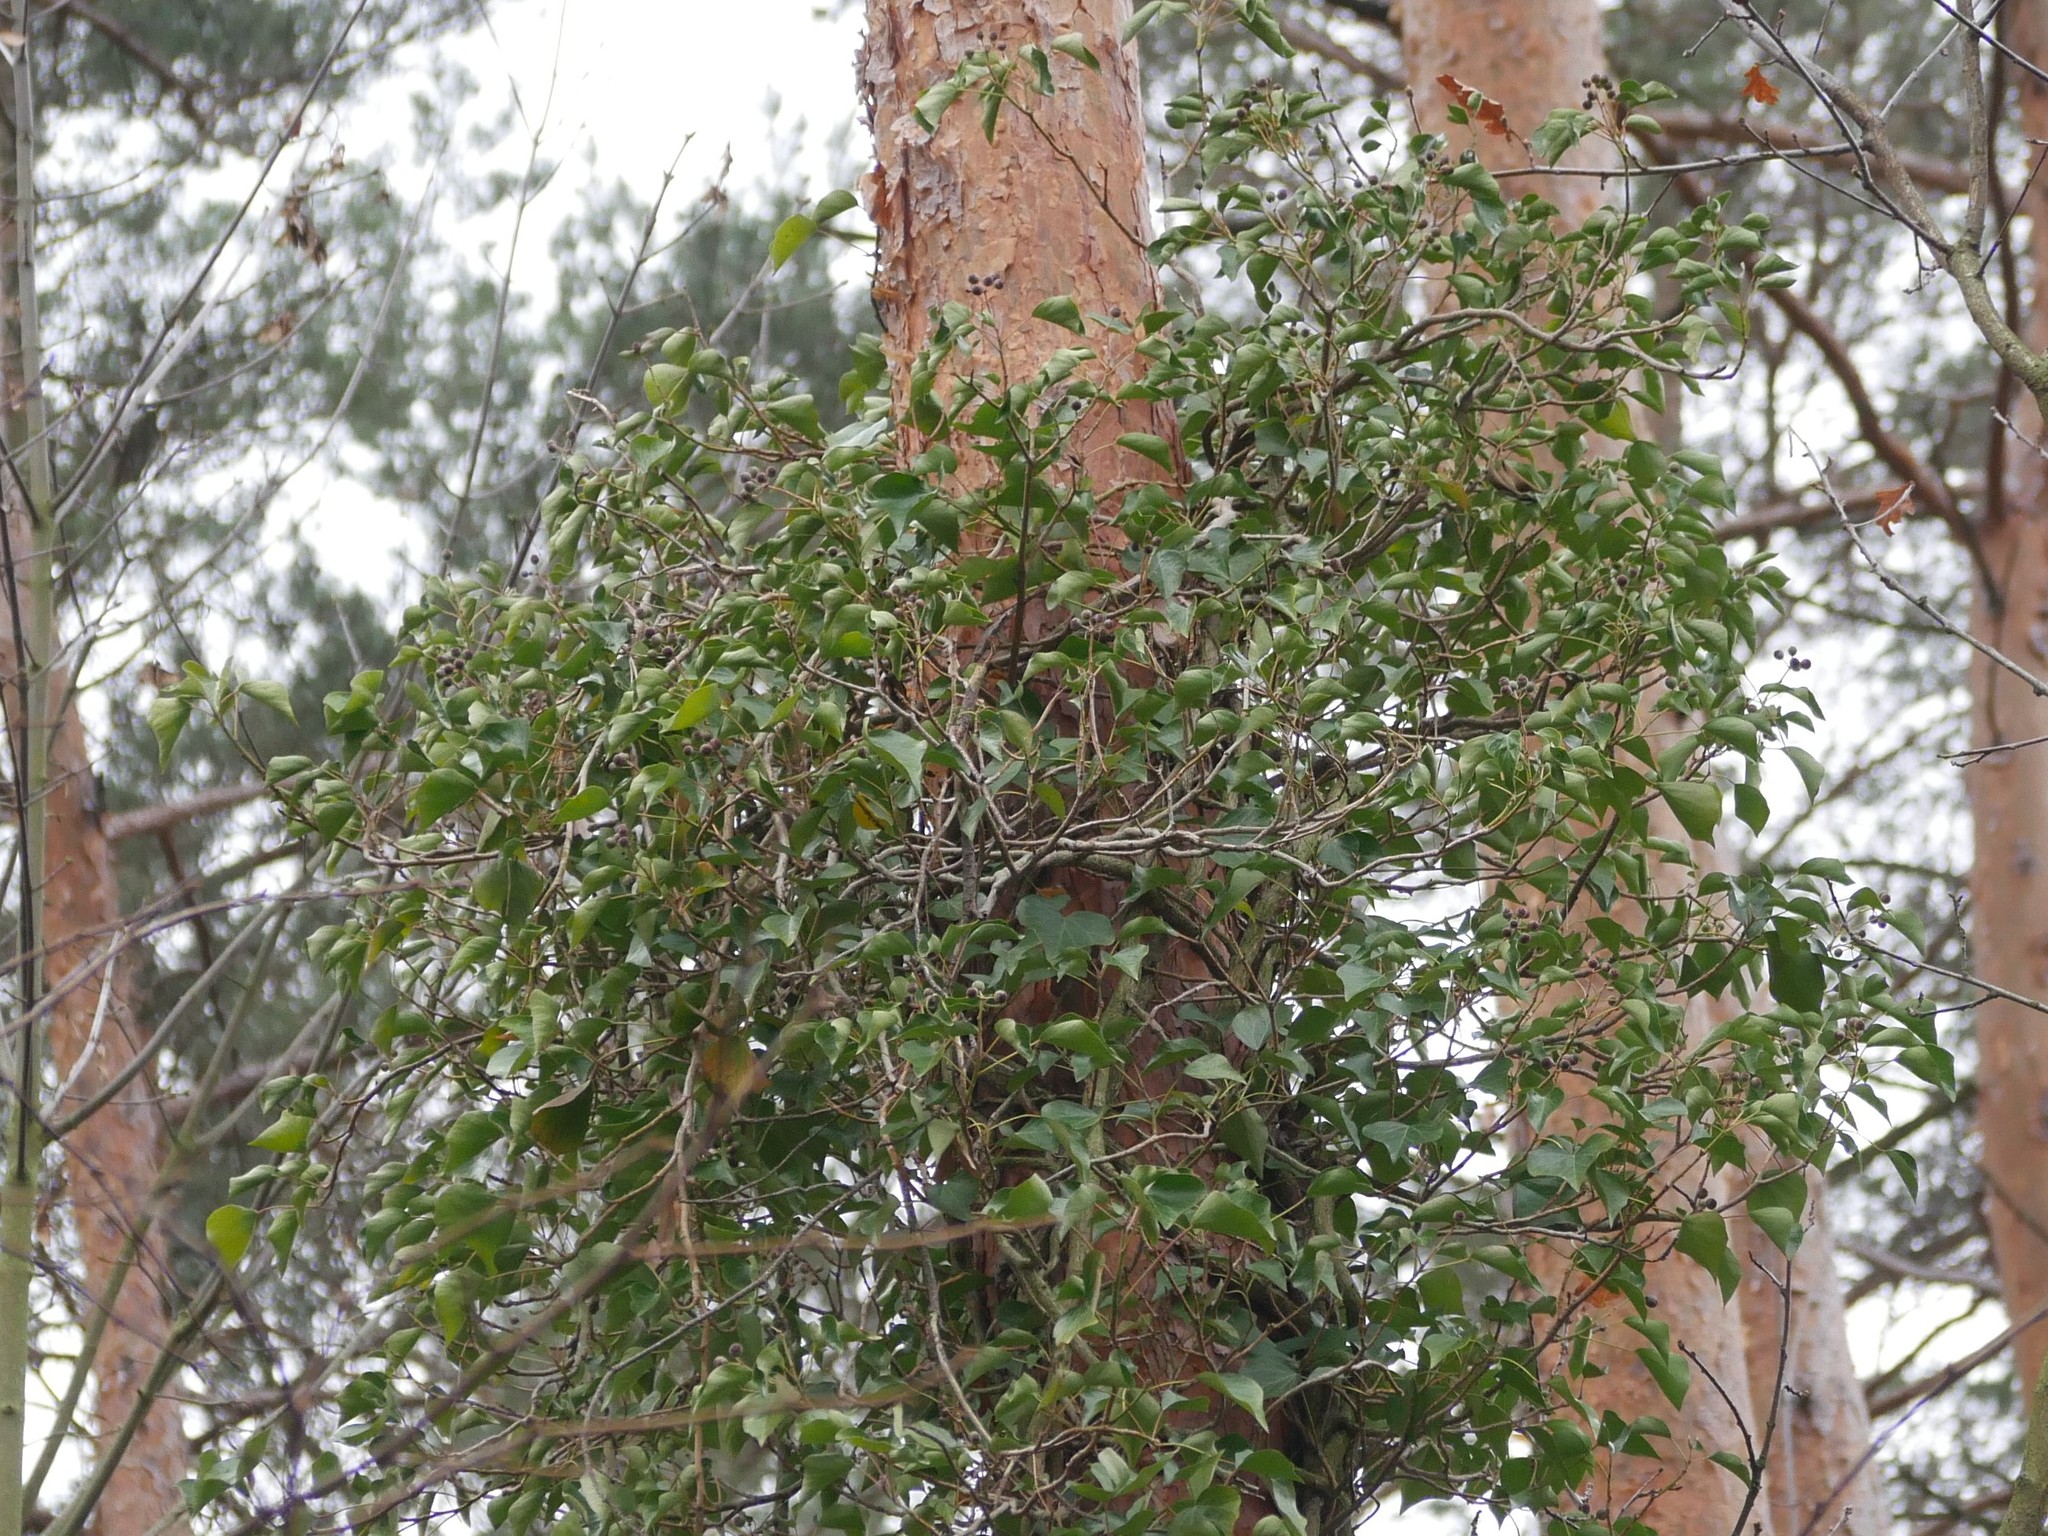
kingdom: Plantae
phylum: Tracheophyta
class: Magnoliopsida
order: Apiales
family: Araliaceae
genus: Hedera
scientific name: Hedera helix
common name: Ivy
